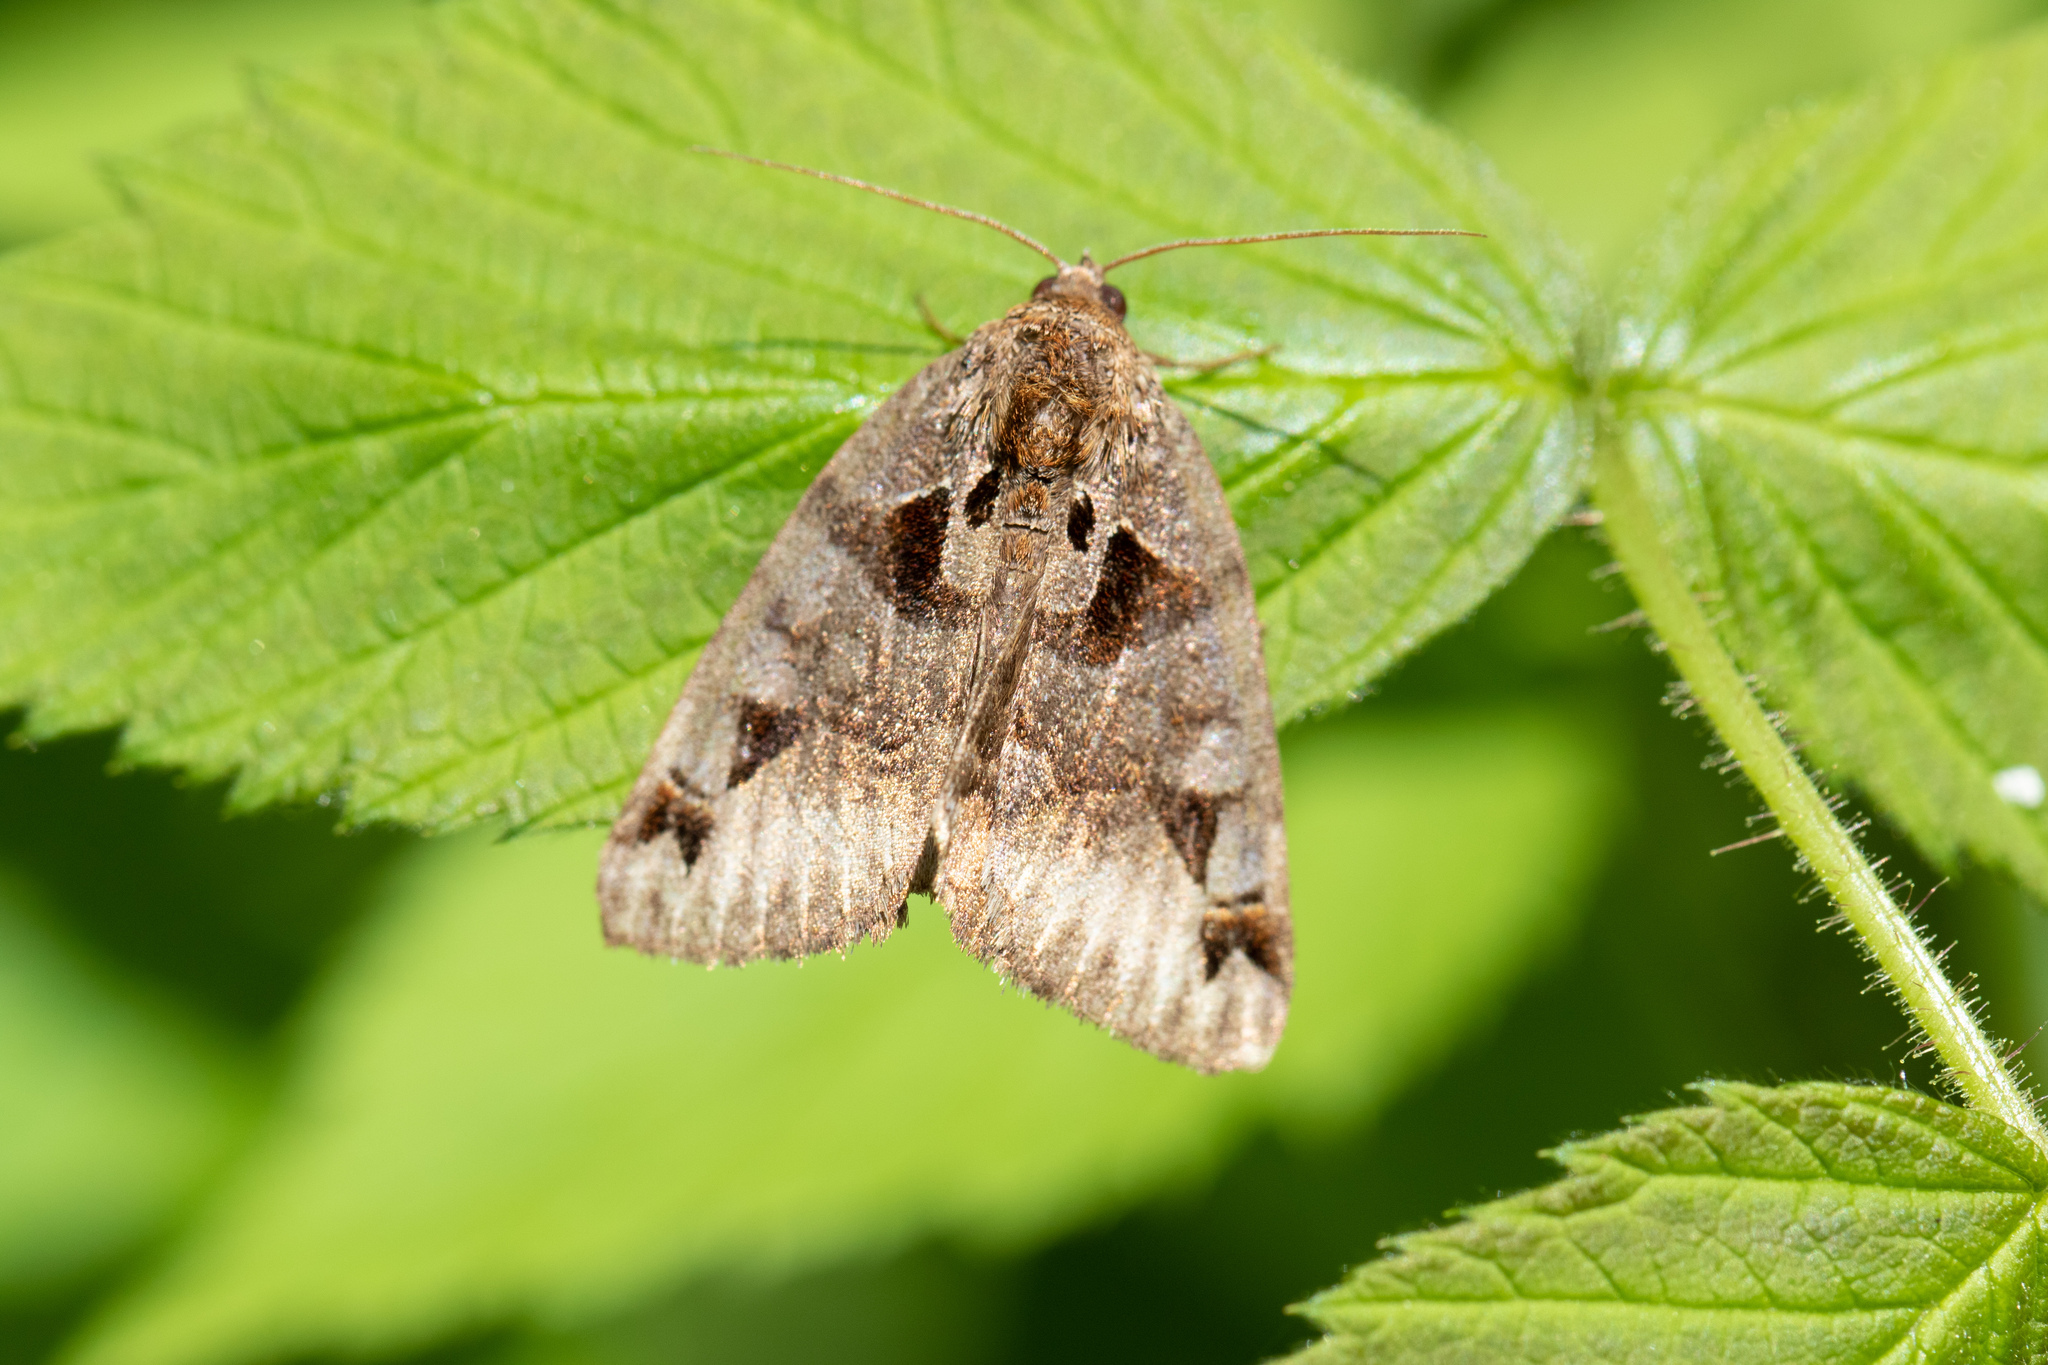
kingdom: Animalia
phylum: Arthropoda
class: Insecta
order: Lepidoptera
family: Erebidae
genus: Euclidia
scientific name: Euclidia cuspidea
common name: Toothed somberwing
